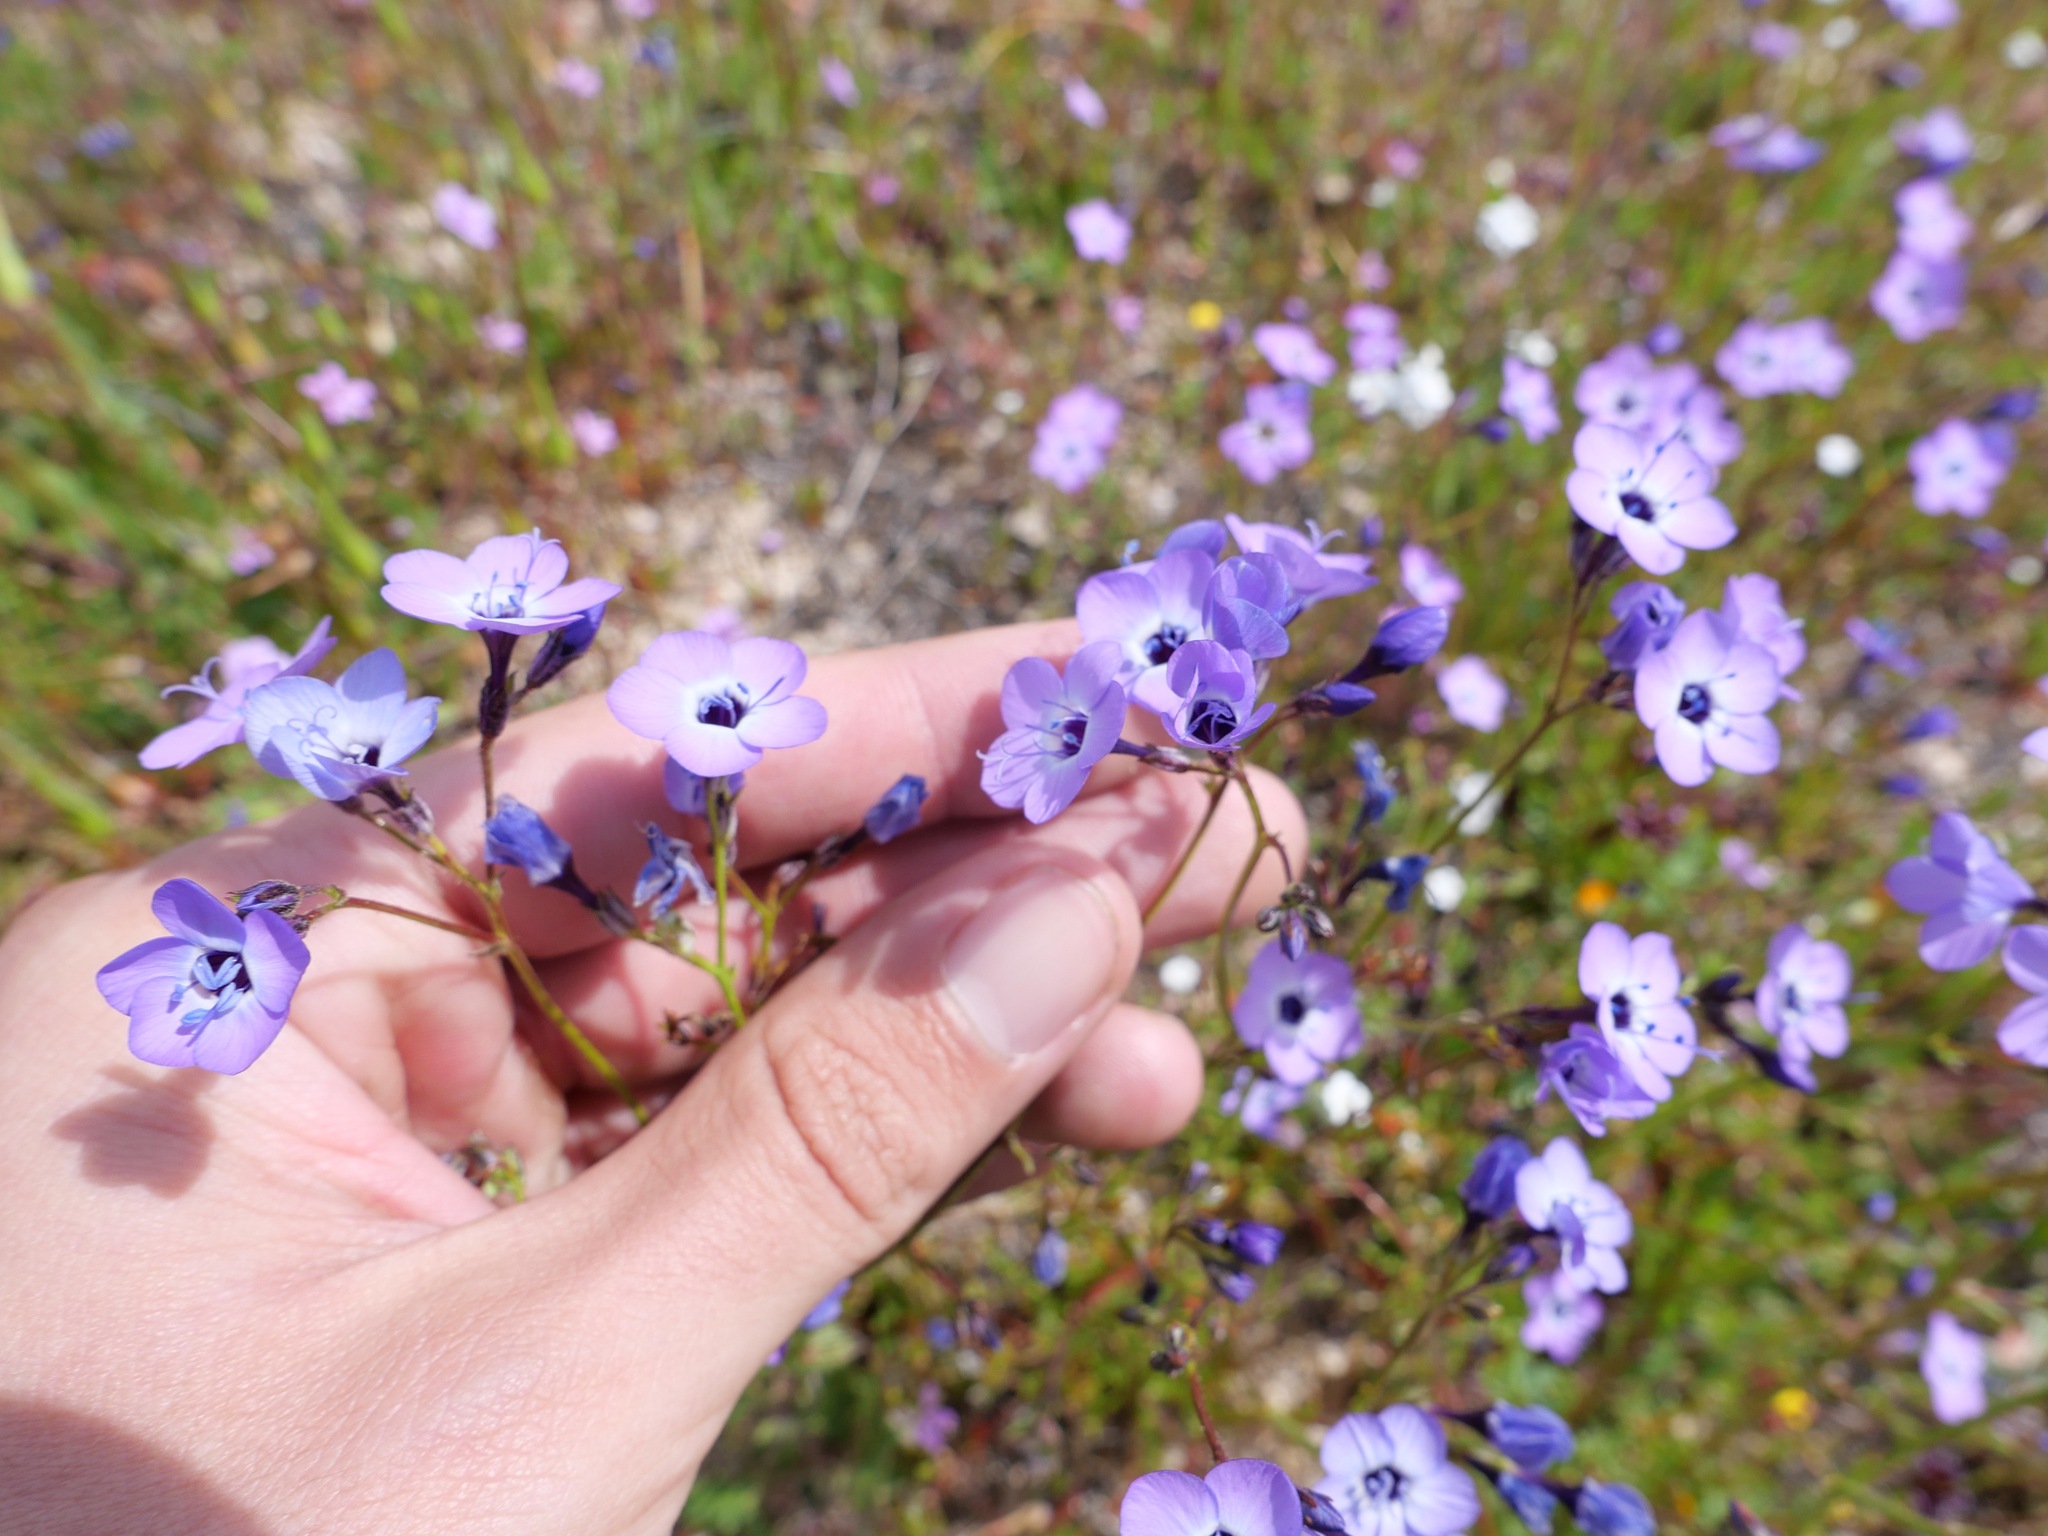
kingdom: Plantae
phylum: Tracheophyta
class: Magnoliopsida
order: Ericales
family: Polemoniaceae
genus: Gilia
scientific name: Gilia tenuiflora
